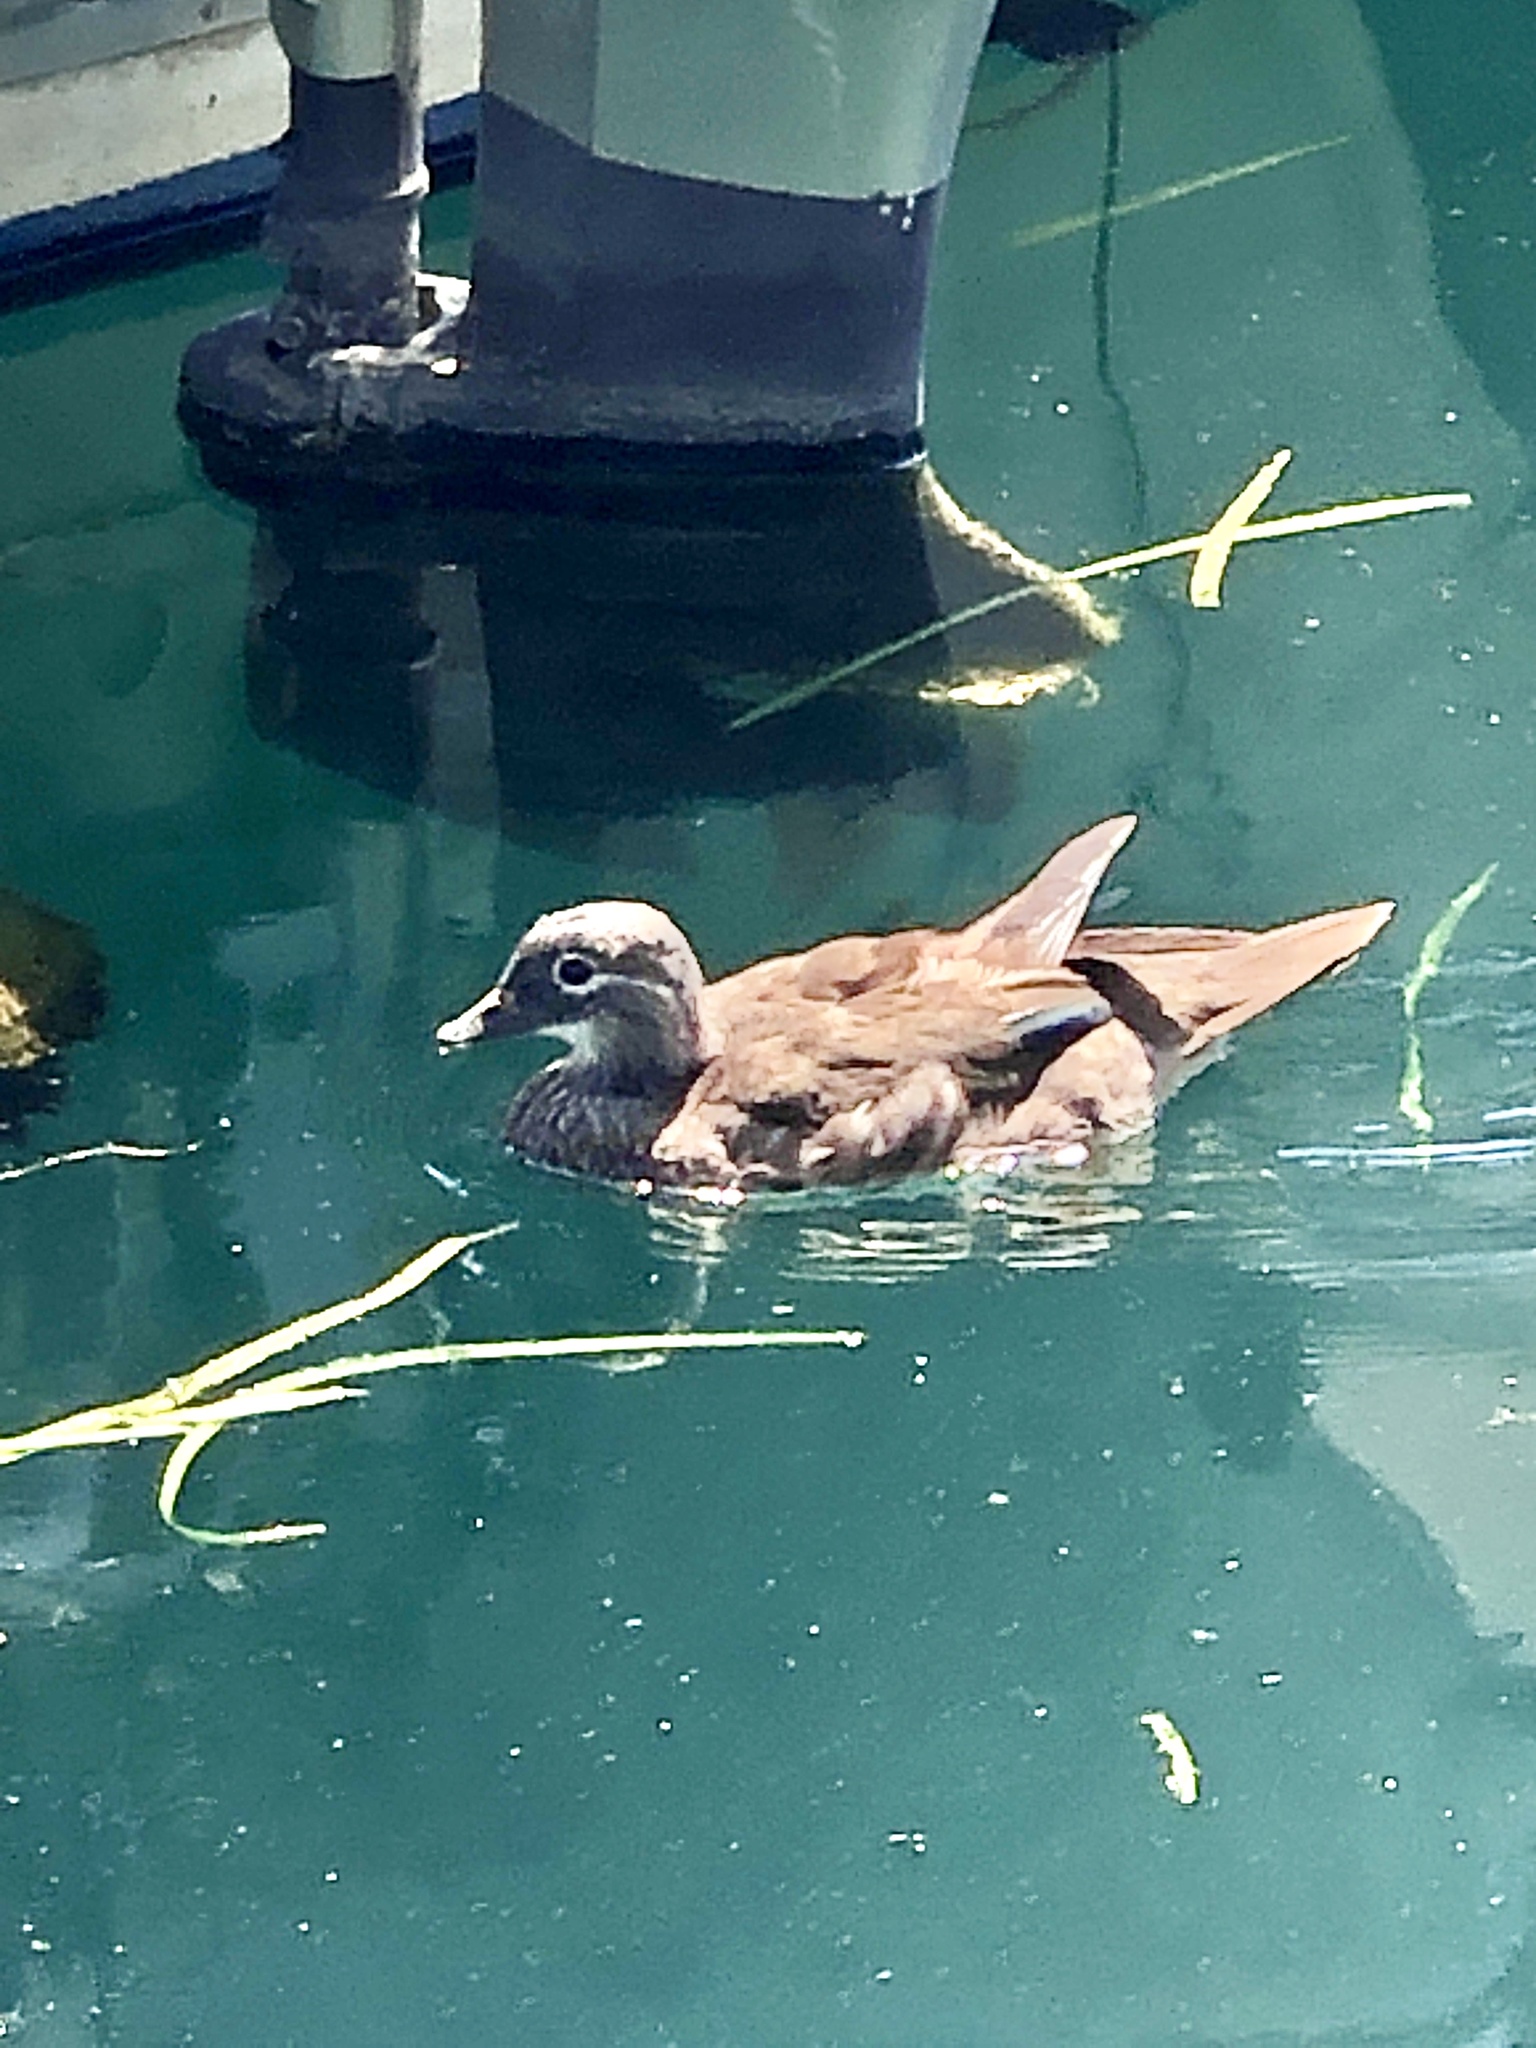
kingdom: Animalia
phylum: Chordata
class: Aves
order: Anseriformes
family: Anatidae
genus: Aix
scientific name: Aix galericulata
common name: Mandarin duck
